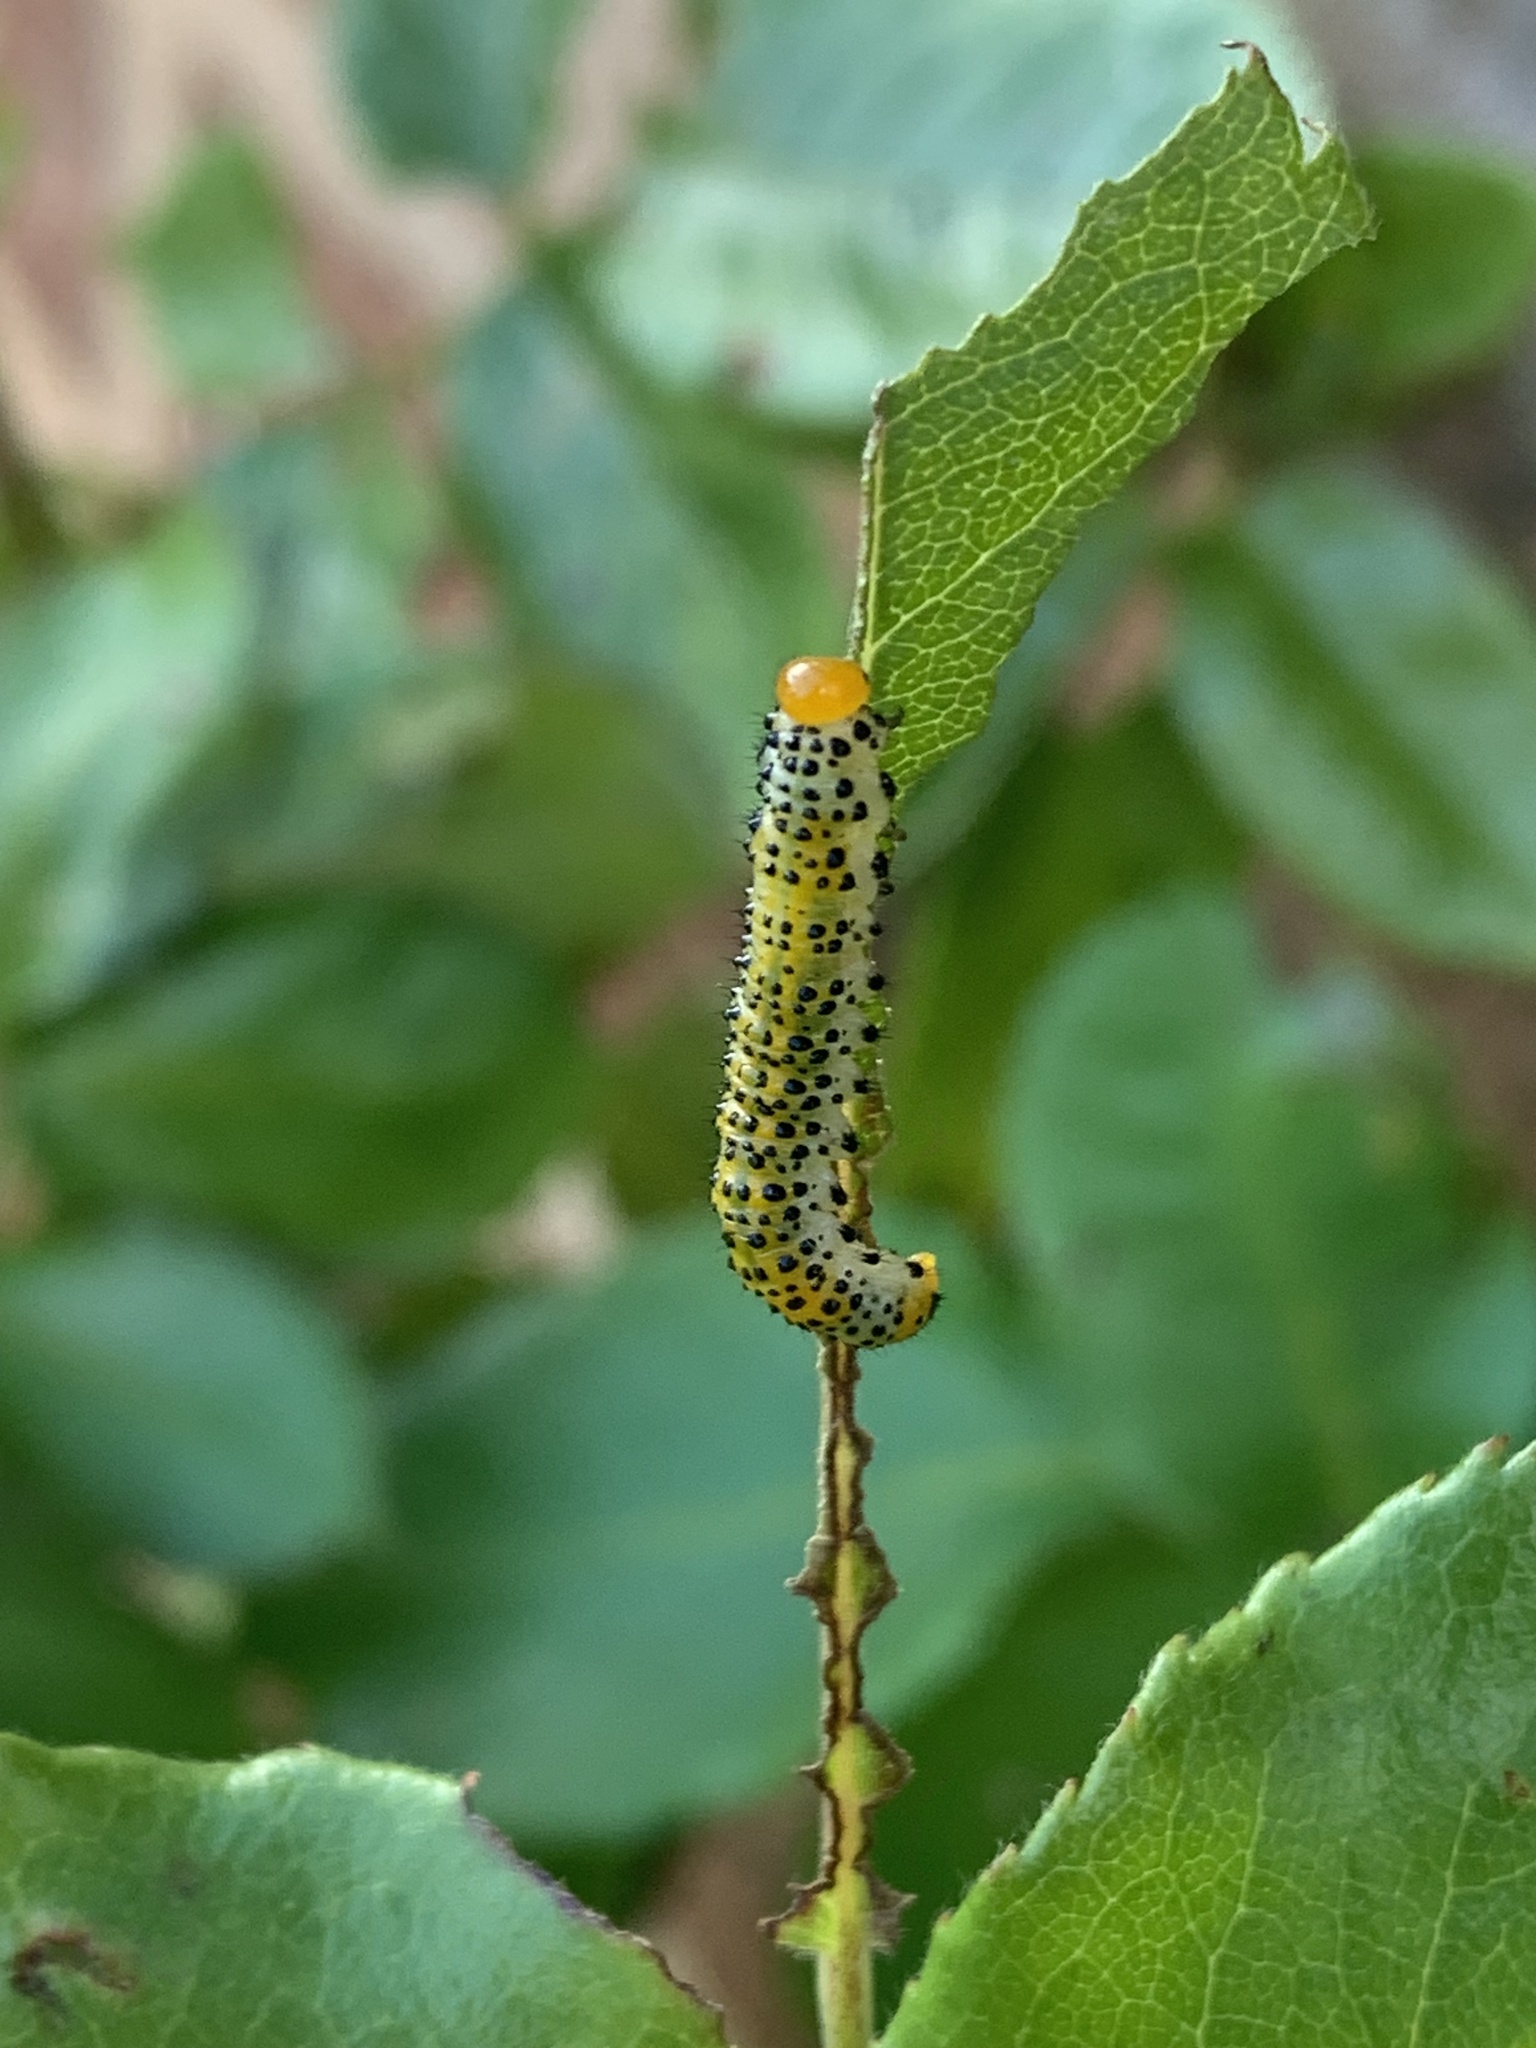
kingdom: Animalia
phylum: Arthropoda
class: Insecta
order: Hymenoptera
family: Argidae
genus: Arge
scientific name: Arge ochropus
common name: Argid sawfly
